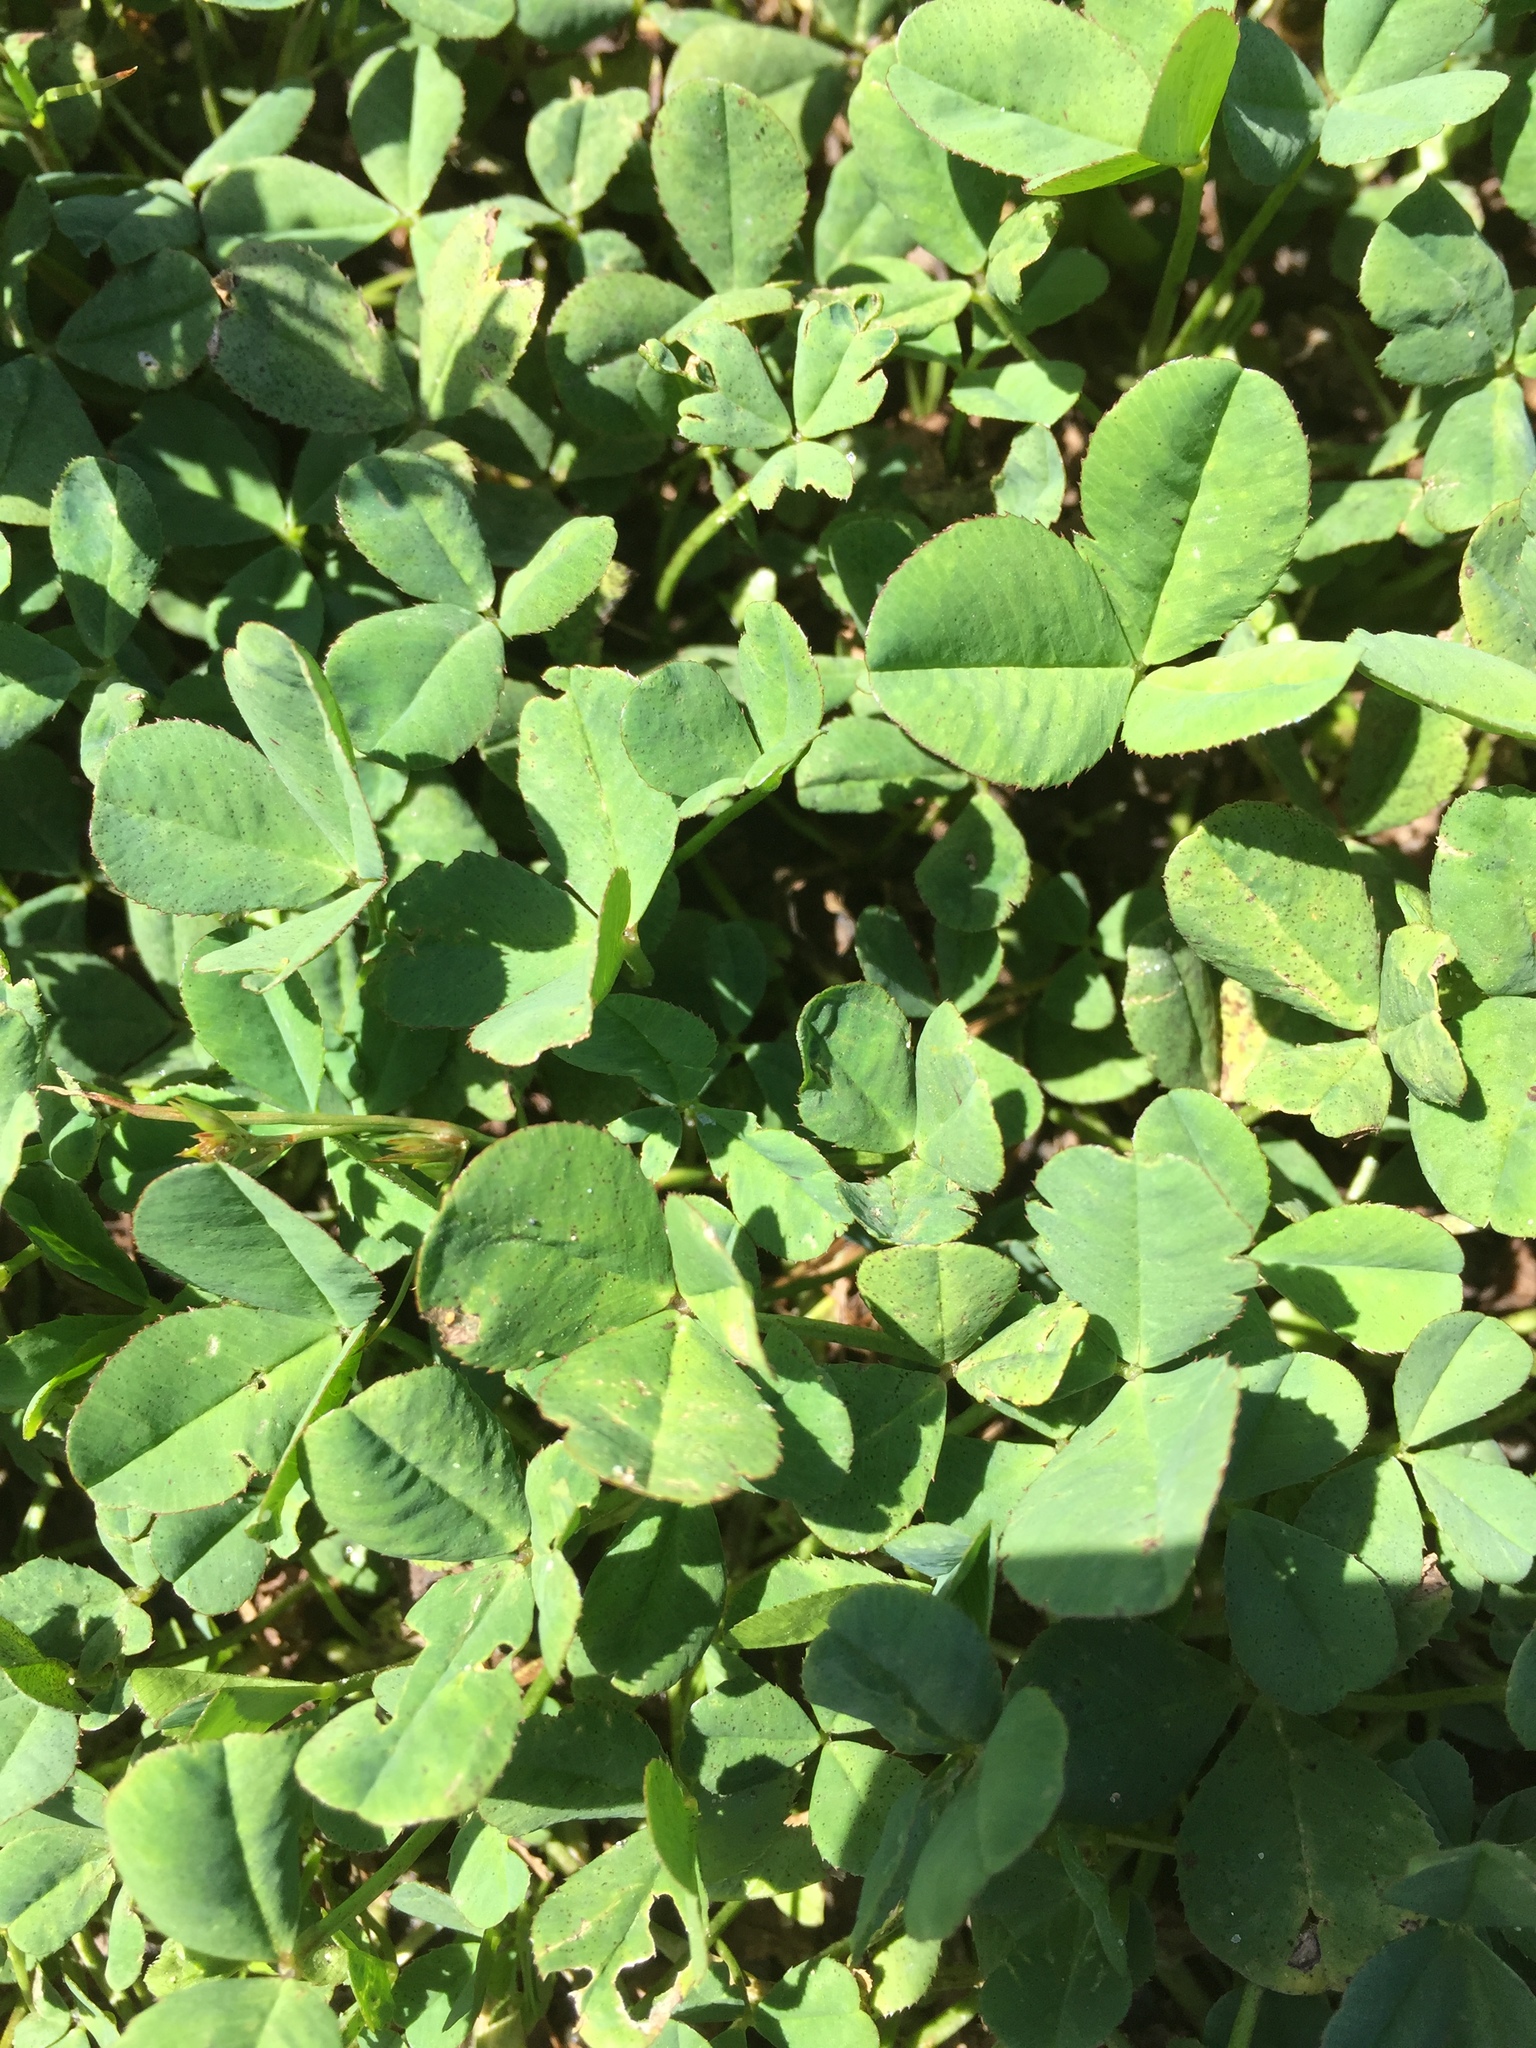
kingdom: Plantae
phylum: Tracheophyta
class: Magnoliopsida
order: Fabales
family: Fabaceae
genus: Trifolium
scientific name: Trifolium repens
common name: White clover
